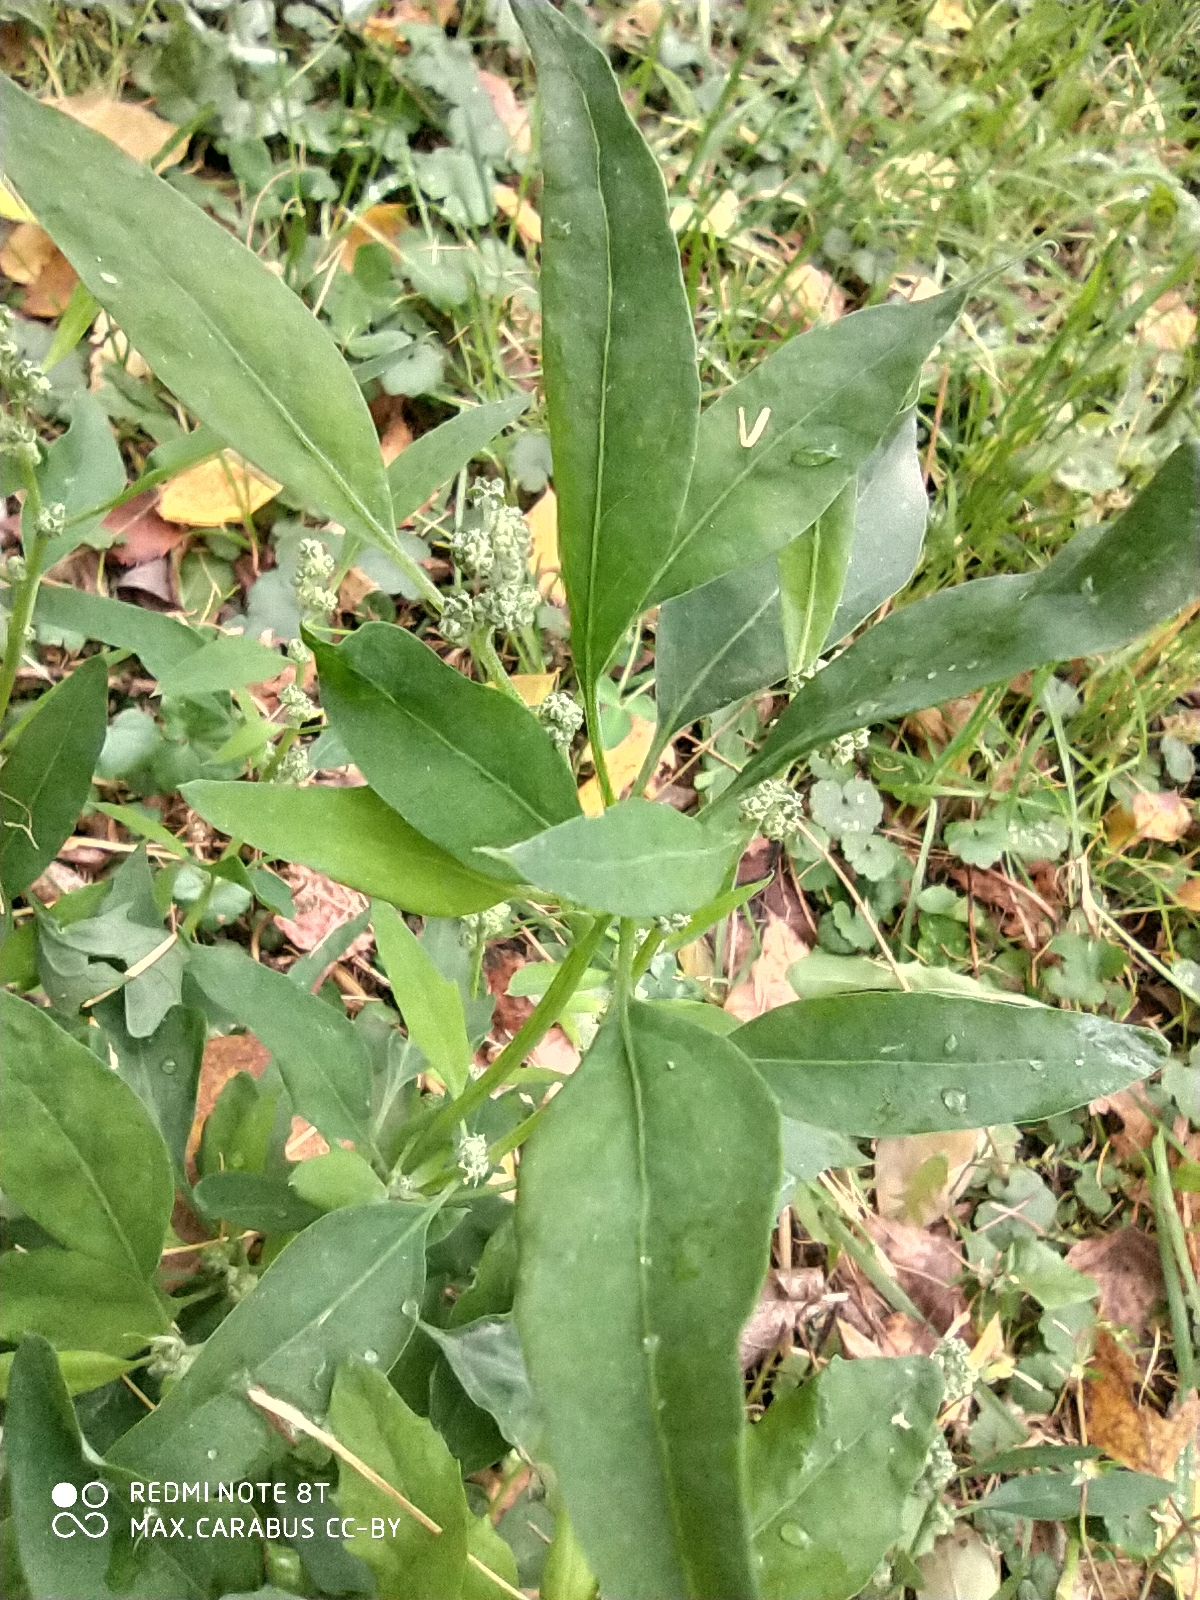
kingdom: Plantae
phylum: Tracheophyta
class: Magnoliopsida
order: Caryophyllales
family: Amaranthaceae
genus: Chenopodium
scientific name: Chenopodium album
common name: Fat-hen
